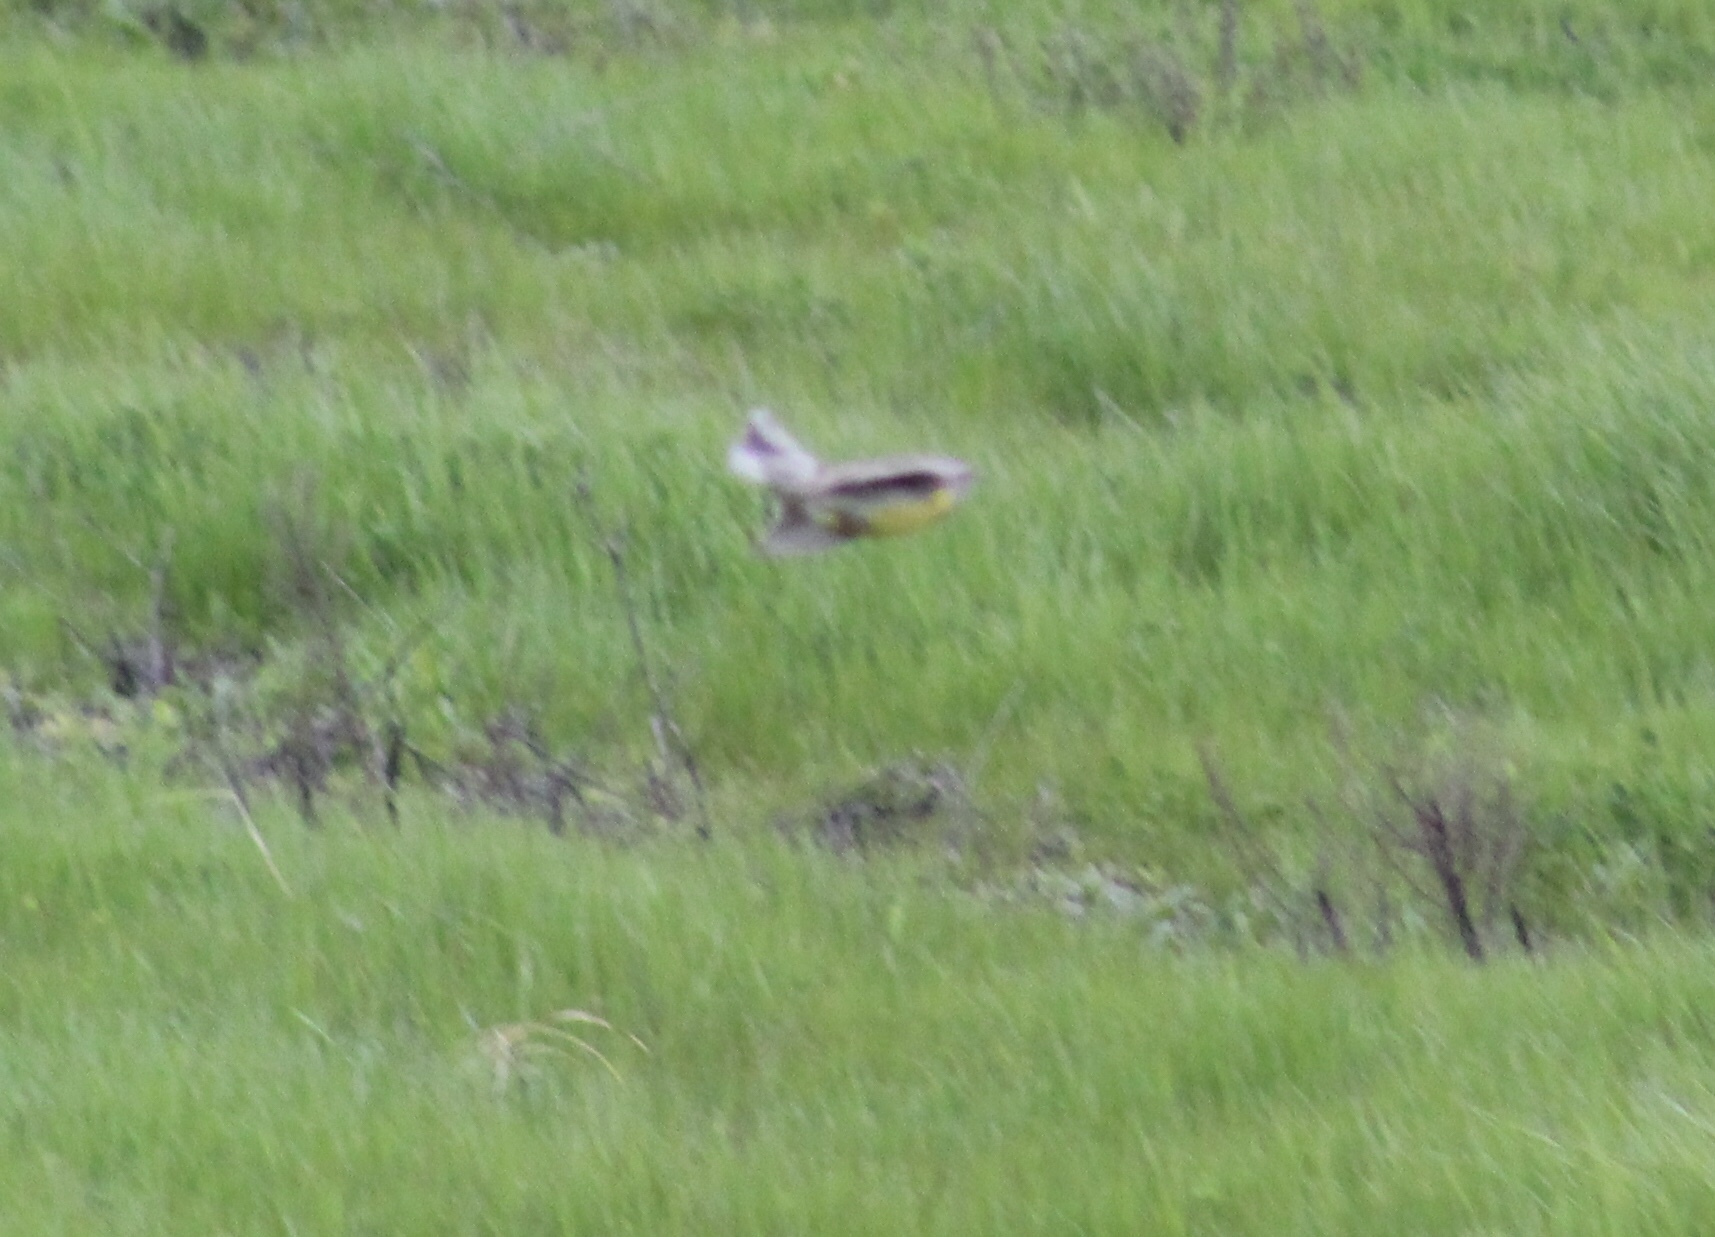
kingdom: Animalia
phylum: Chordata
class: Aves
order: Passeriformes
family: Icteridae
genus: Sturnella
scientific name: Sturnella neglecta
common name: Western meadowlark
